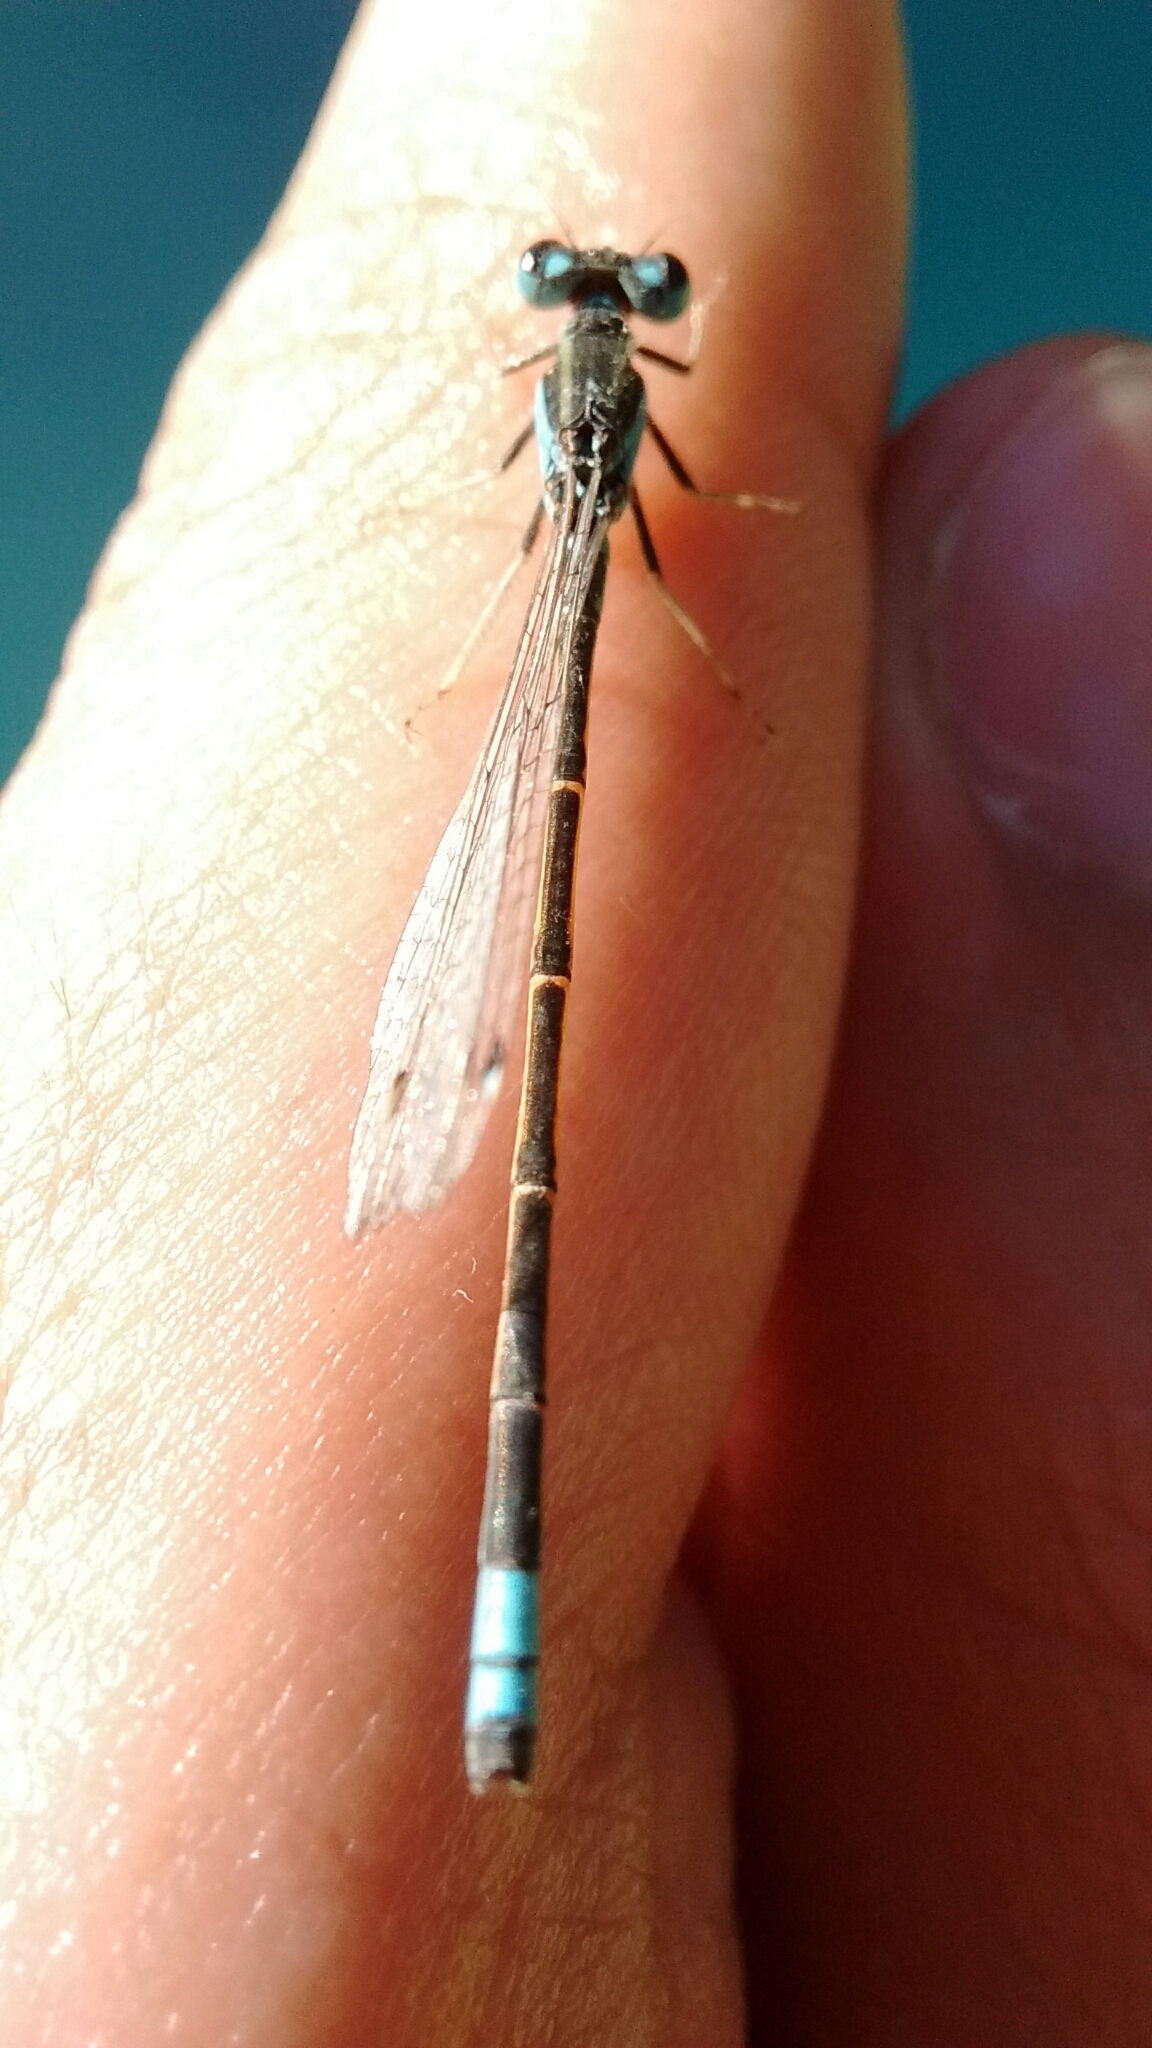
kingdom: Animalia
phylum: Arthropoda
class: Insecta
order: Odonata
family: Coenagrionidae
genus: Ischnura
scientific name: Ischnura fluviatilis
